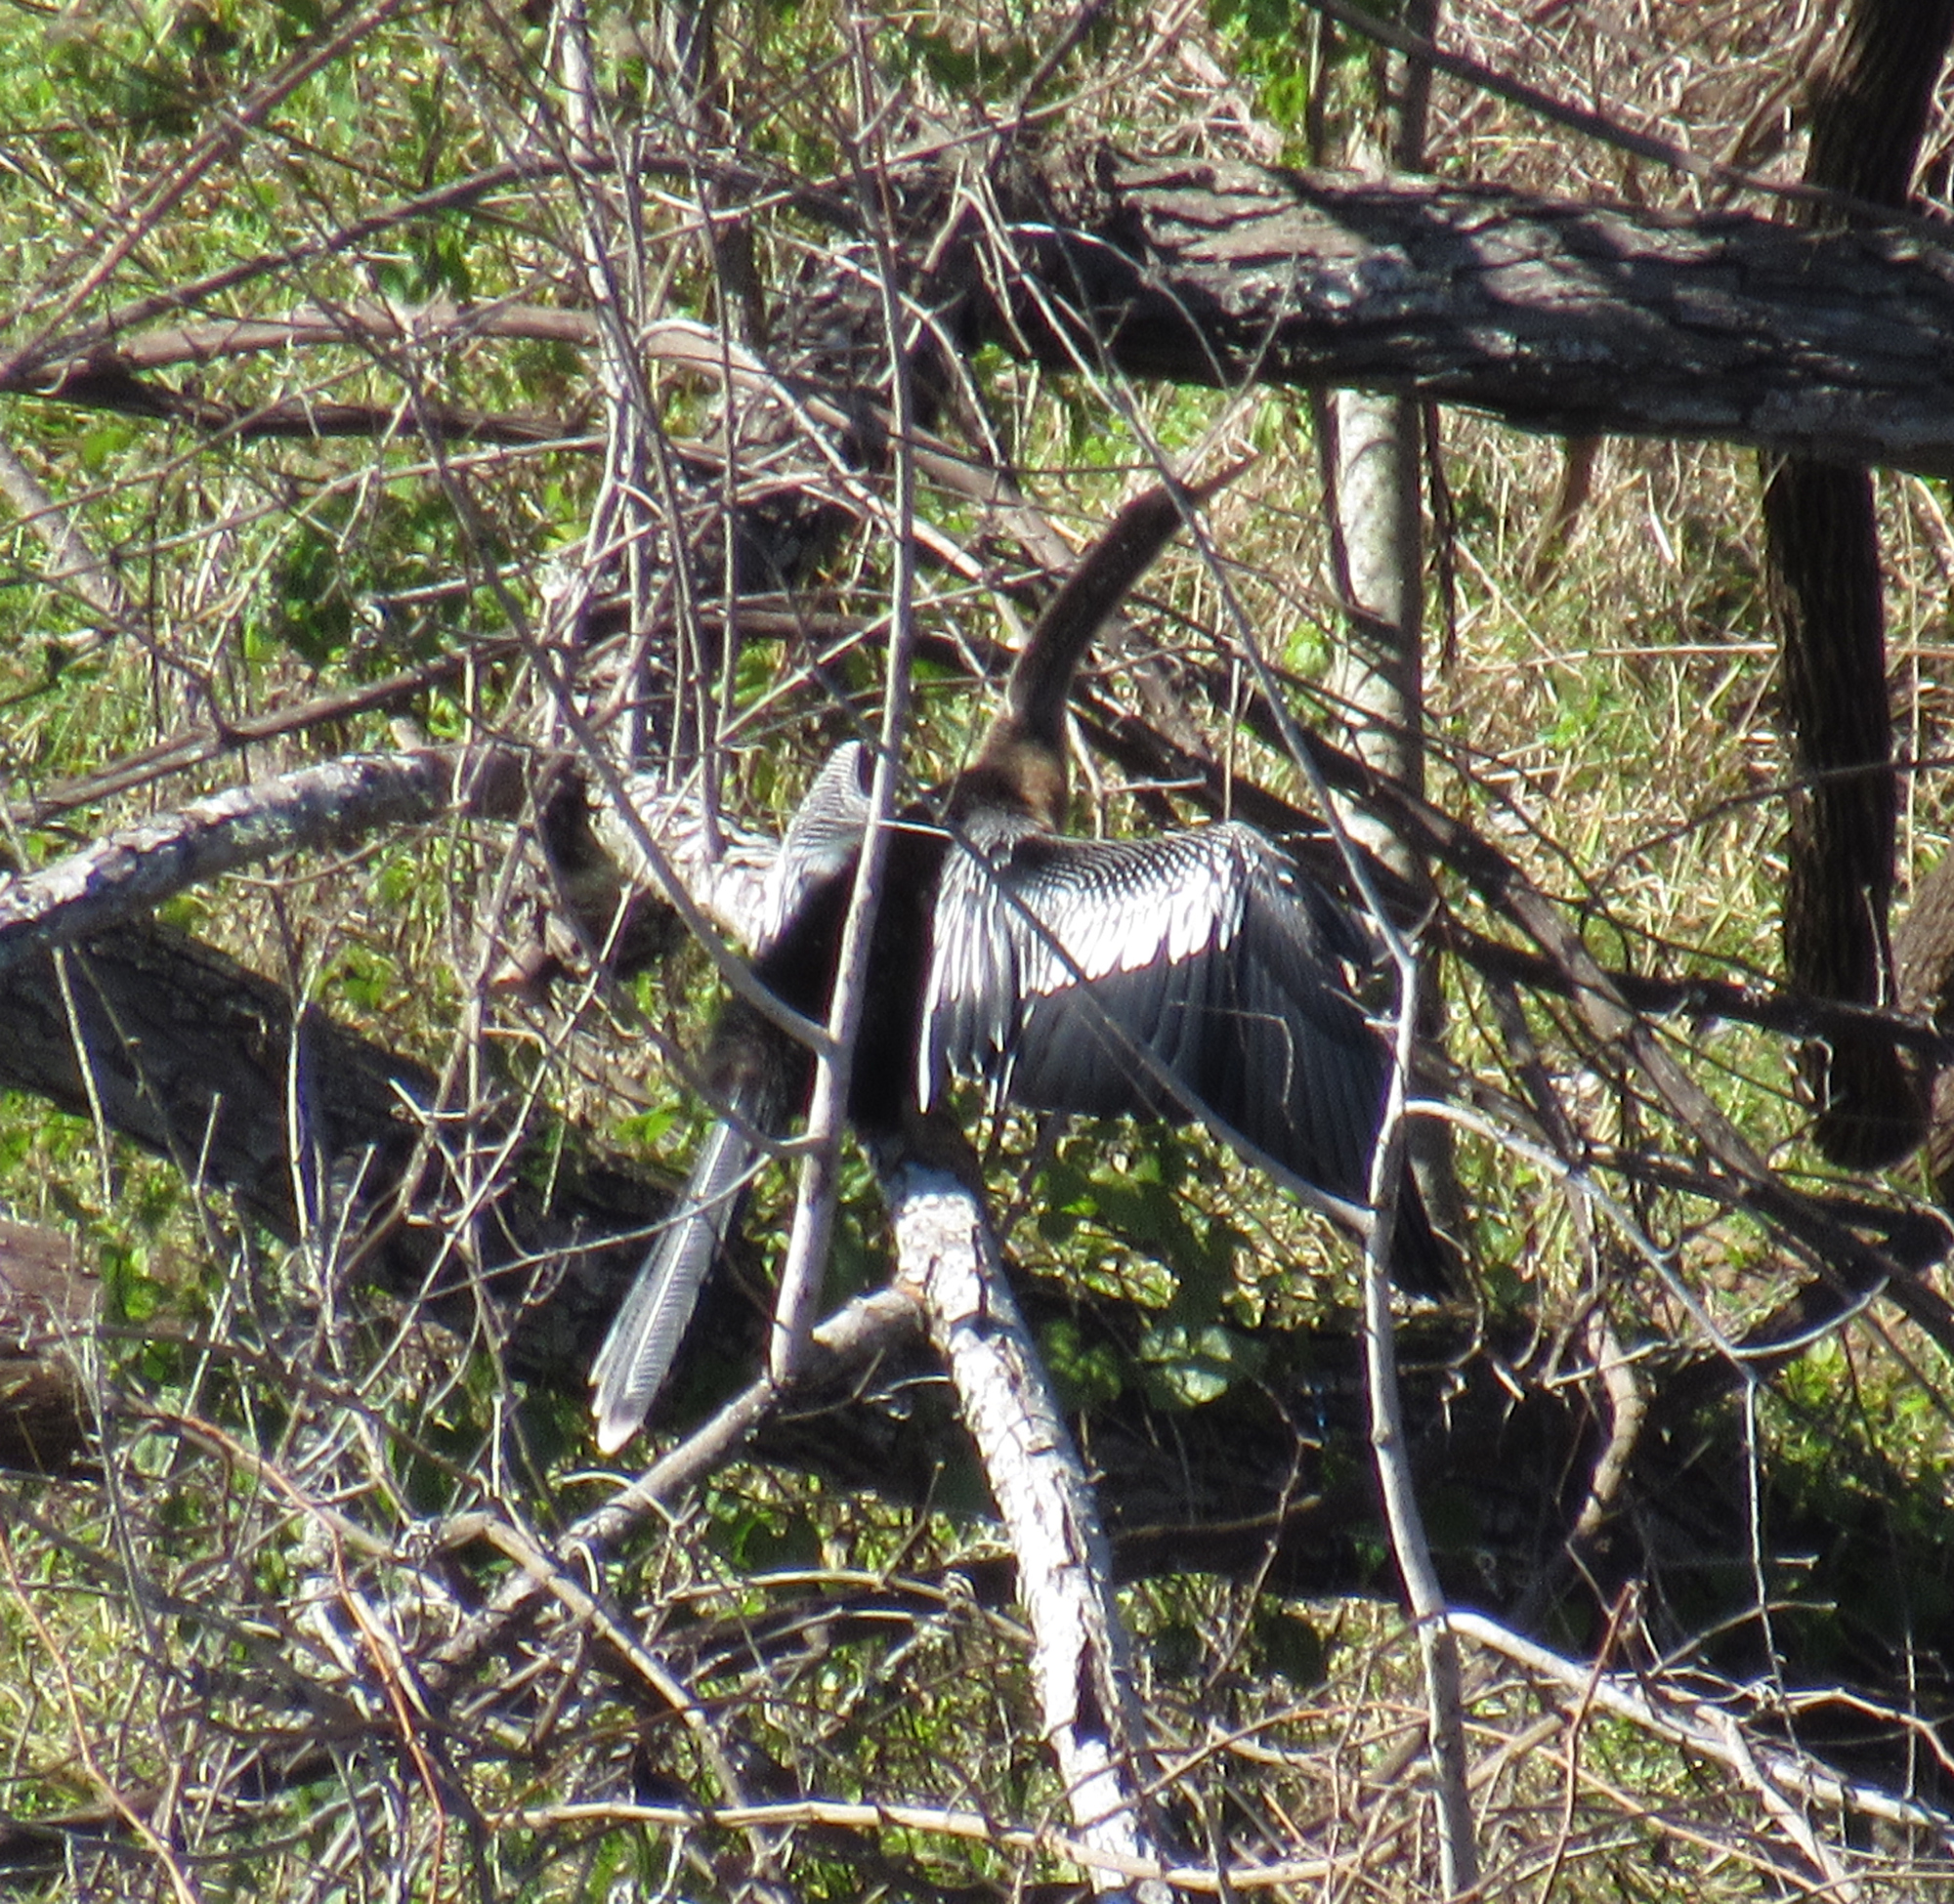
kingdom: Animalia
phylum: Chordata
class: Aves
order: Suliformes
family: Anhingidae
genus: Anhinga
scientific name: Anhinga anhinga
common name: Anhinga
